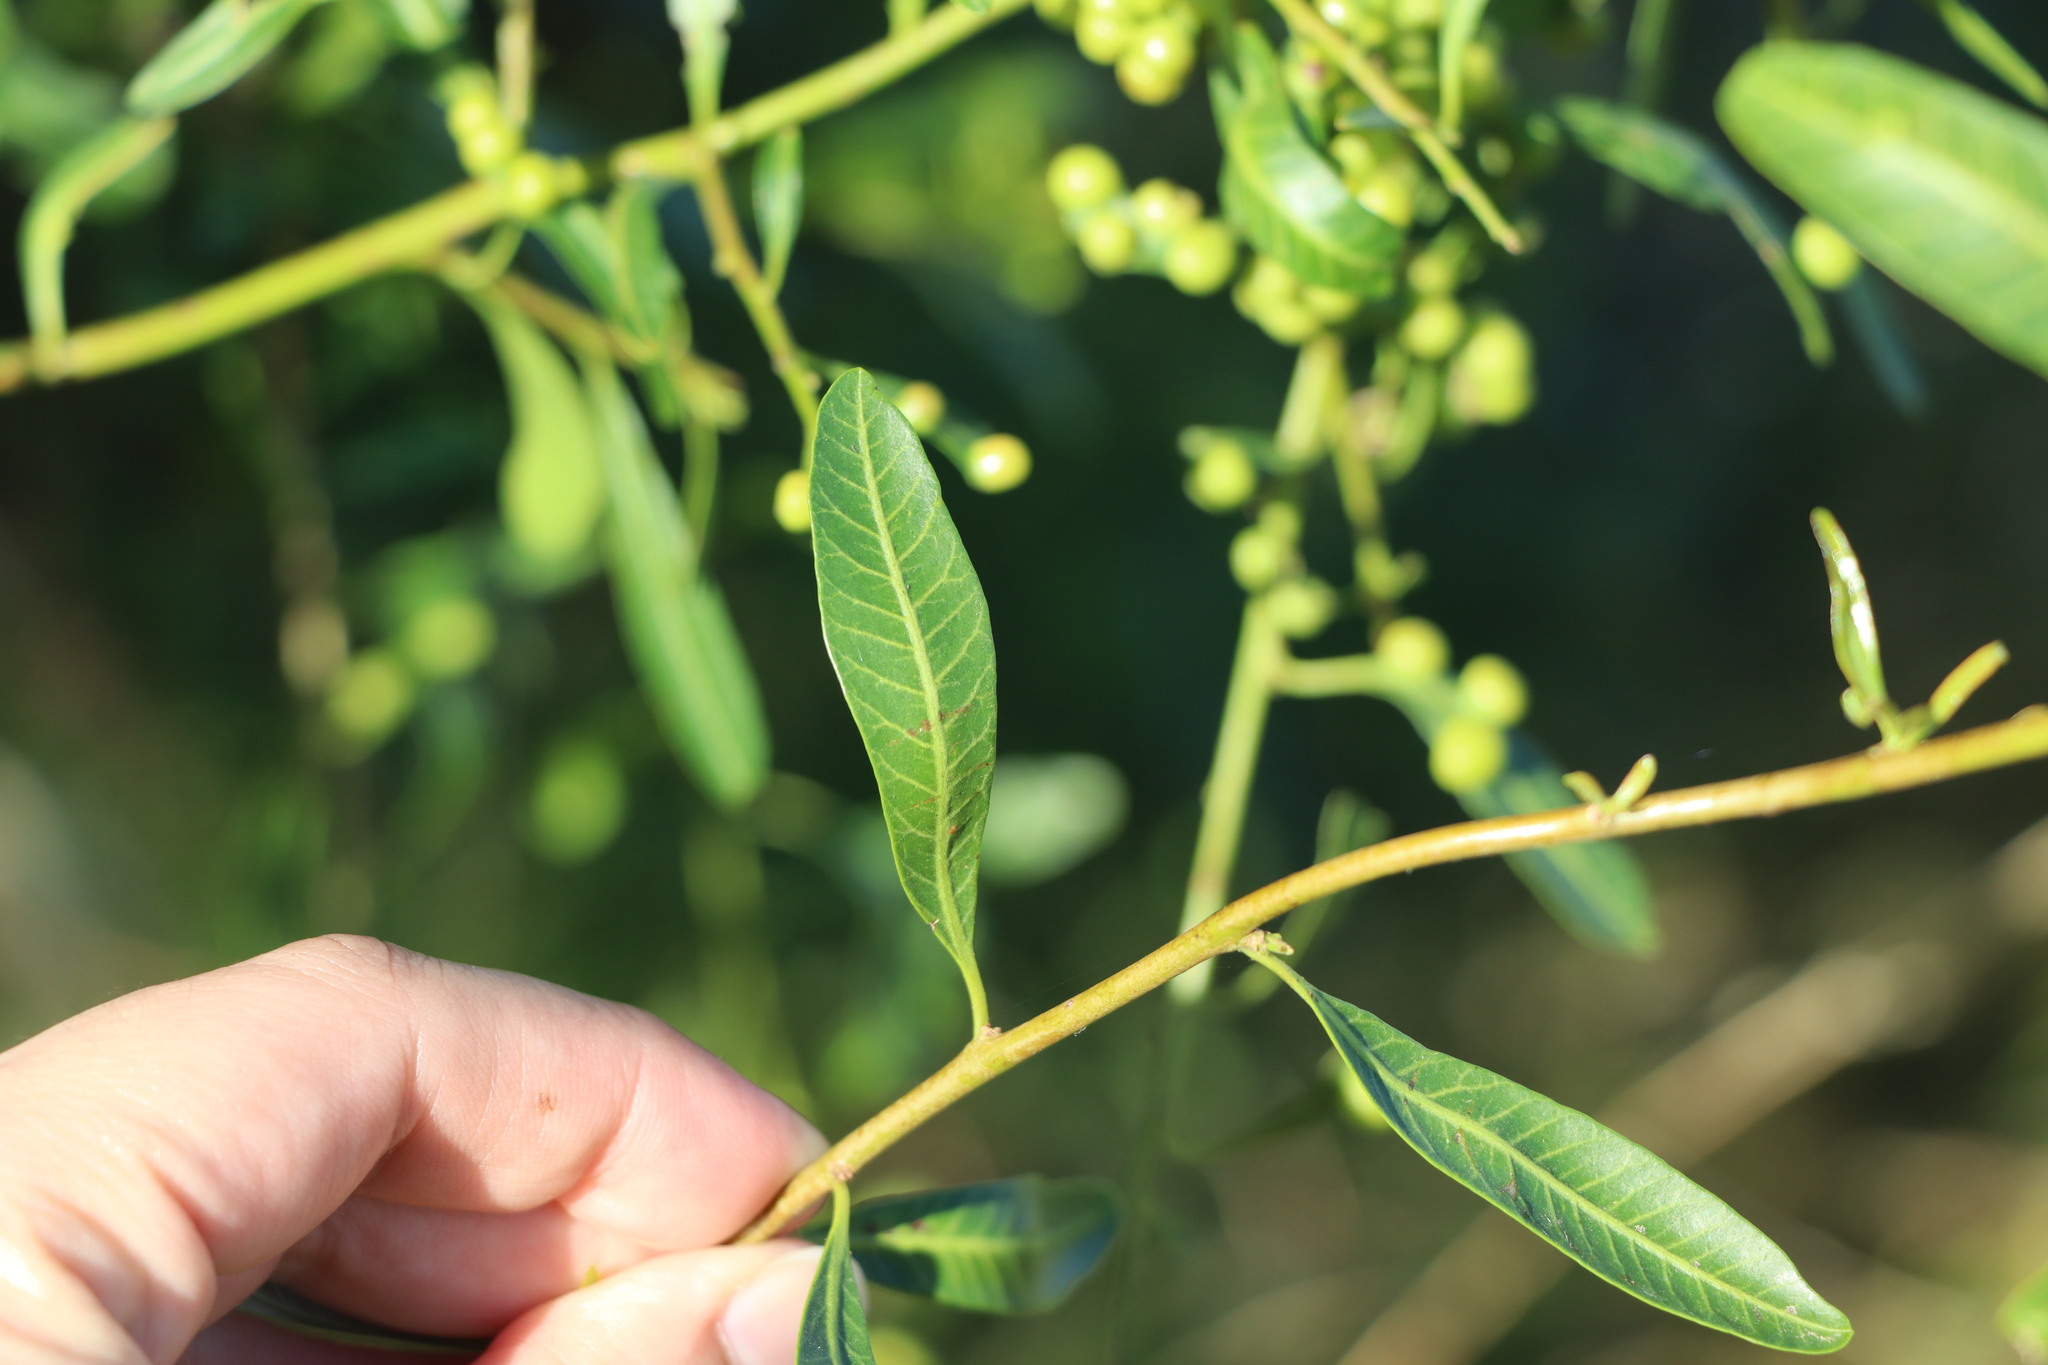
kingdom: Plantae
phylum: Tracheophyta
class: Magnoliopsida
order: Sapindales
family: Anacardiaceae
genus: Schinus
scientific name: Schinus longifolia
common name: Longleaf peppertree
